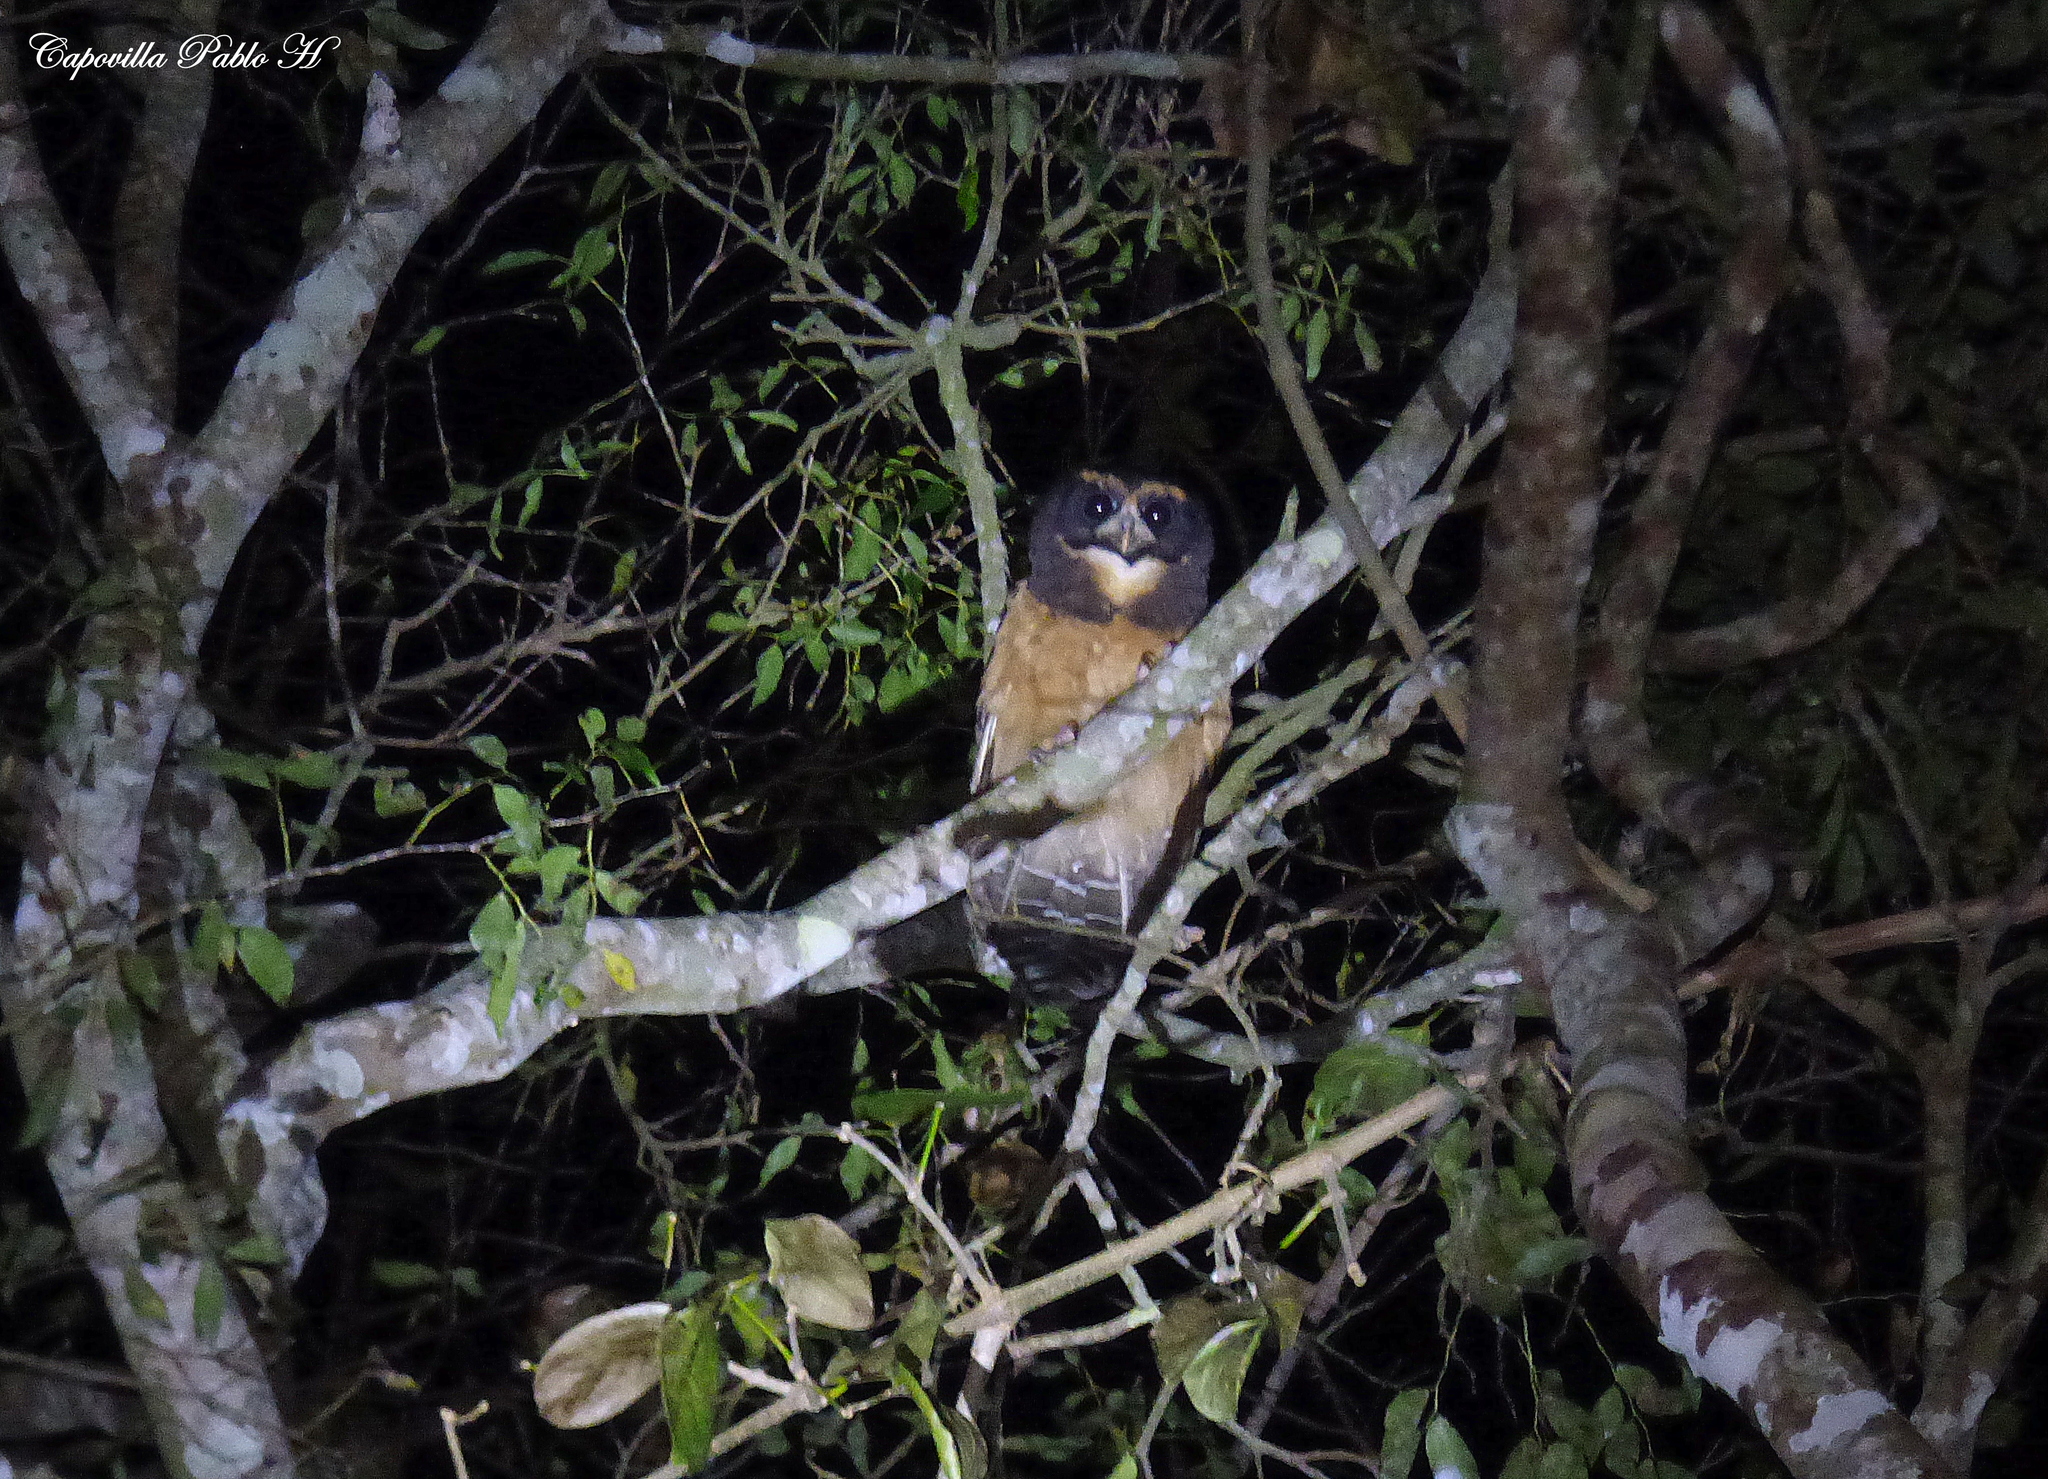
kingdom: Animalia
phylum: Chordata
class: Aves
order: Strigiformes
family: Strigidae
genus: Pulsatrix
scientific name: Pulsatrix koeniswaldiana
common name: Tawny-browed owl
